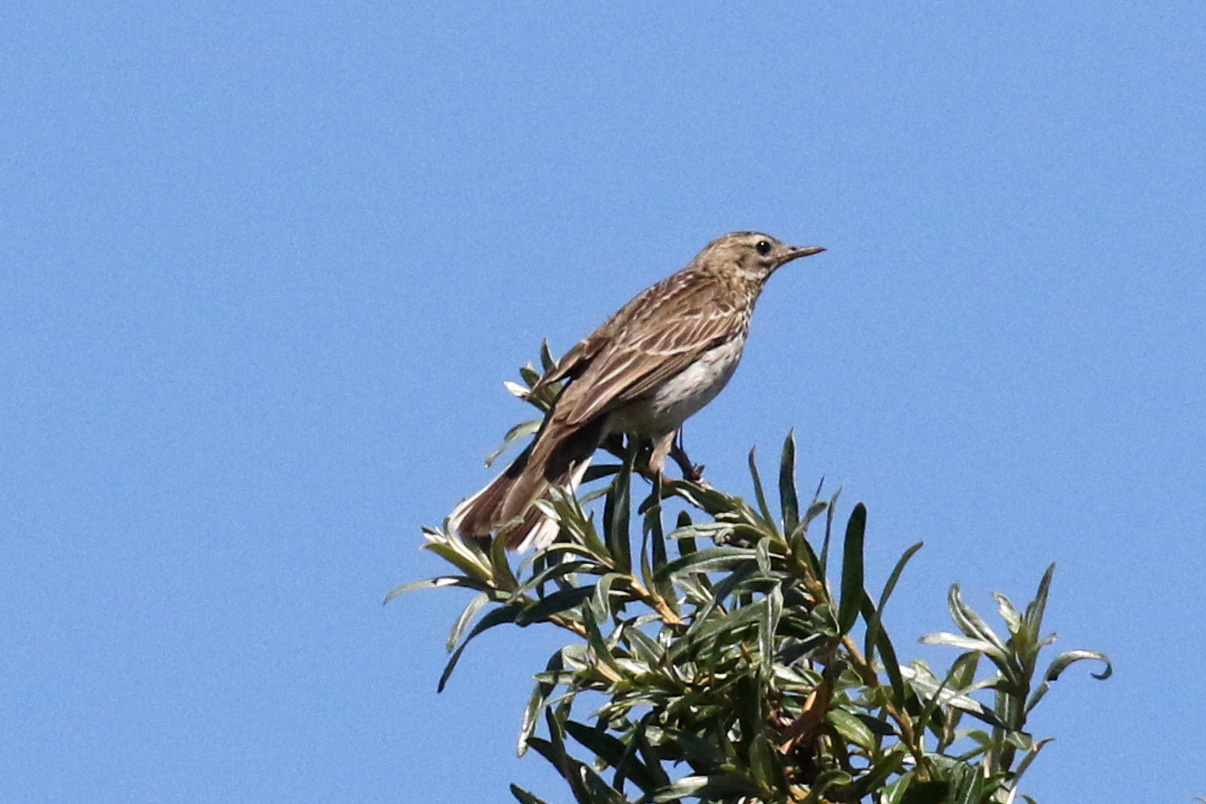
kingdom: Animalia
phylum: Chordata
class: Aves
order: Passeriformes
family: Motacillidae
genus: Anthus
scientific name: Anthus trivialis
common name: Tree pipit
